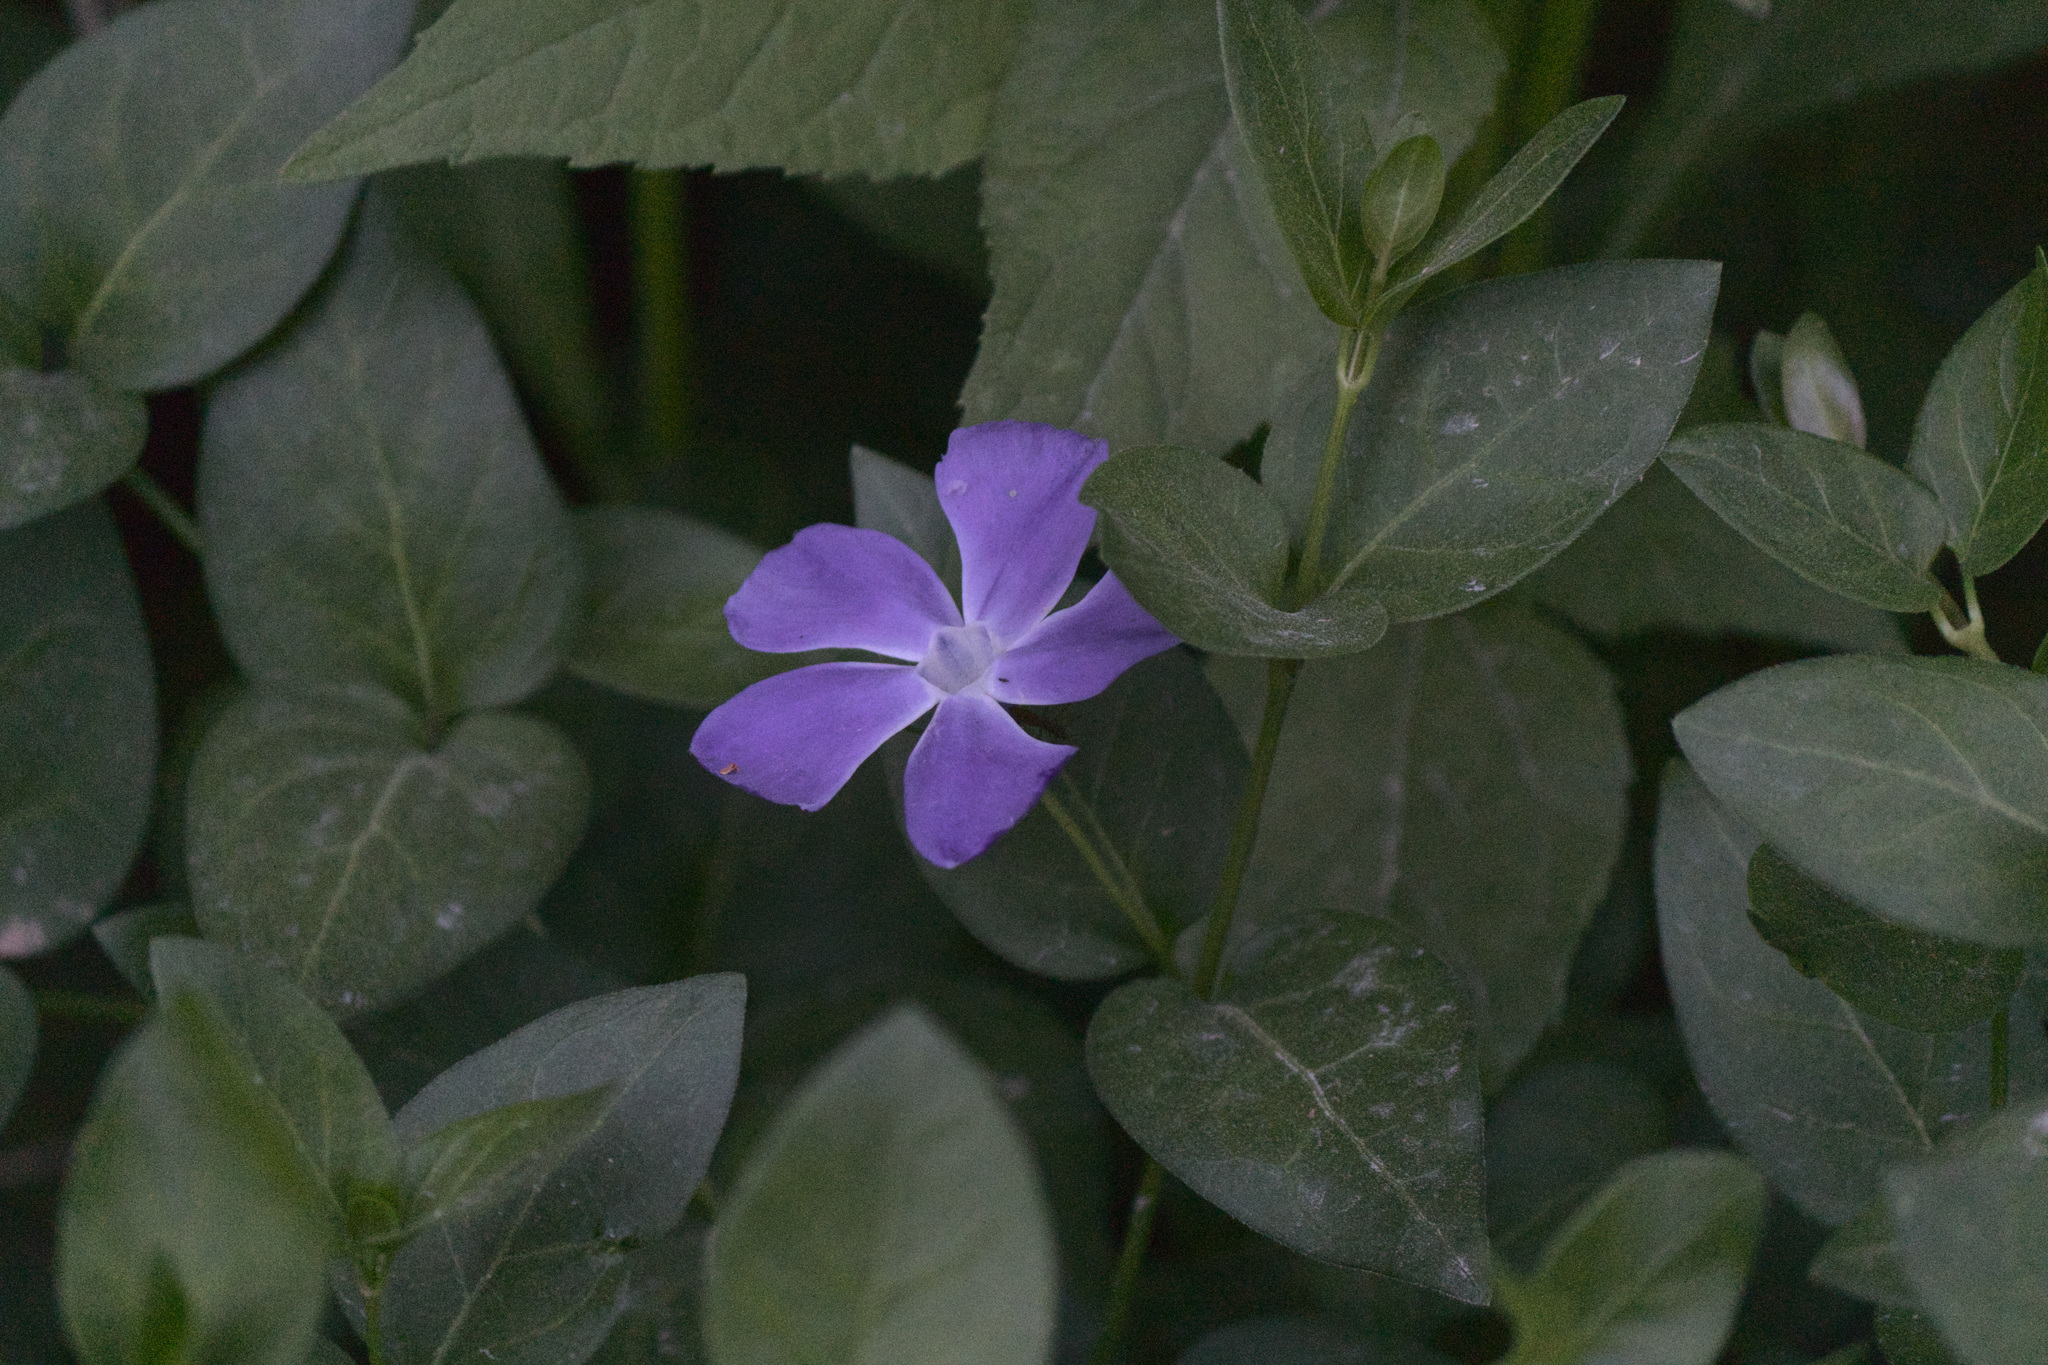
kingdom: Plantae
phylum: Tracheophyta
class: Magnoliopsida
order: Gentianales
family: Apocynaceae
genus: Vinca
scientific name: Vinca major
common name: Greater periwinkle
